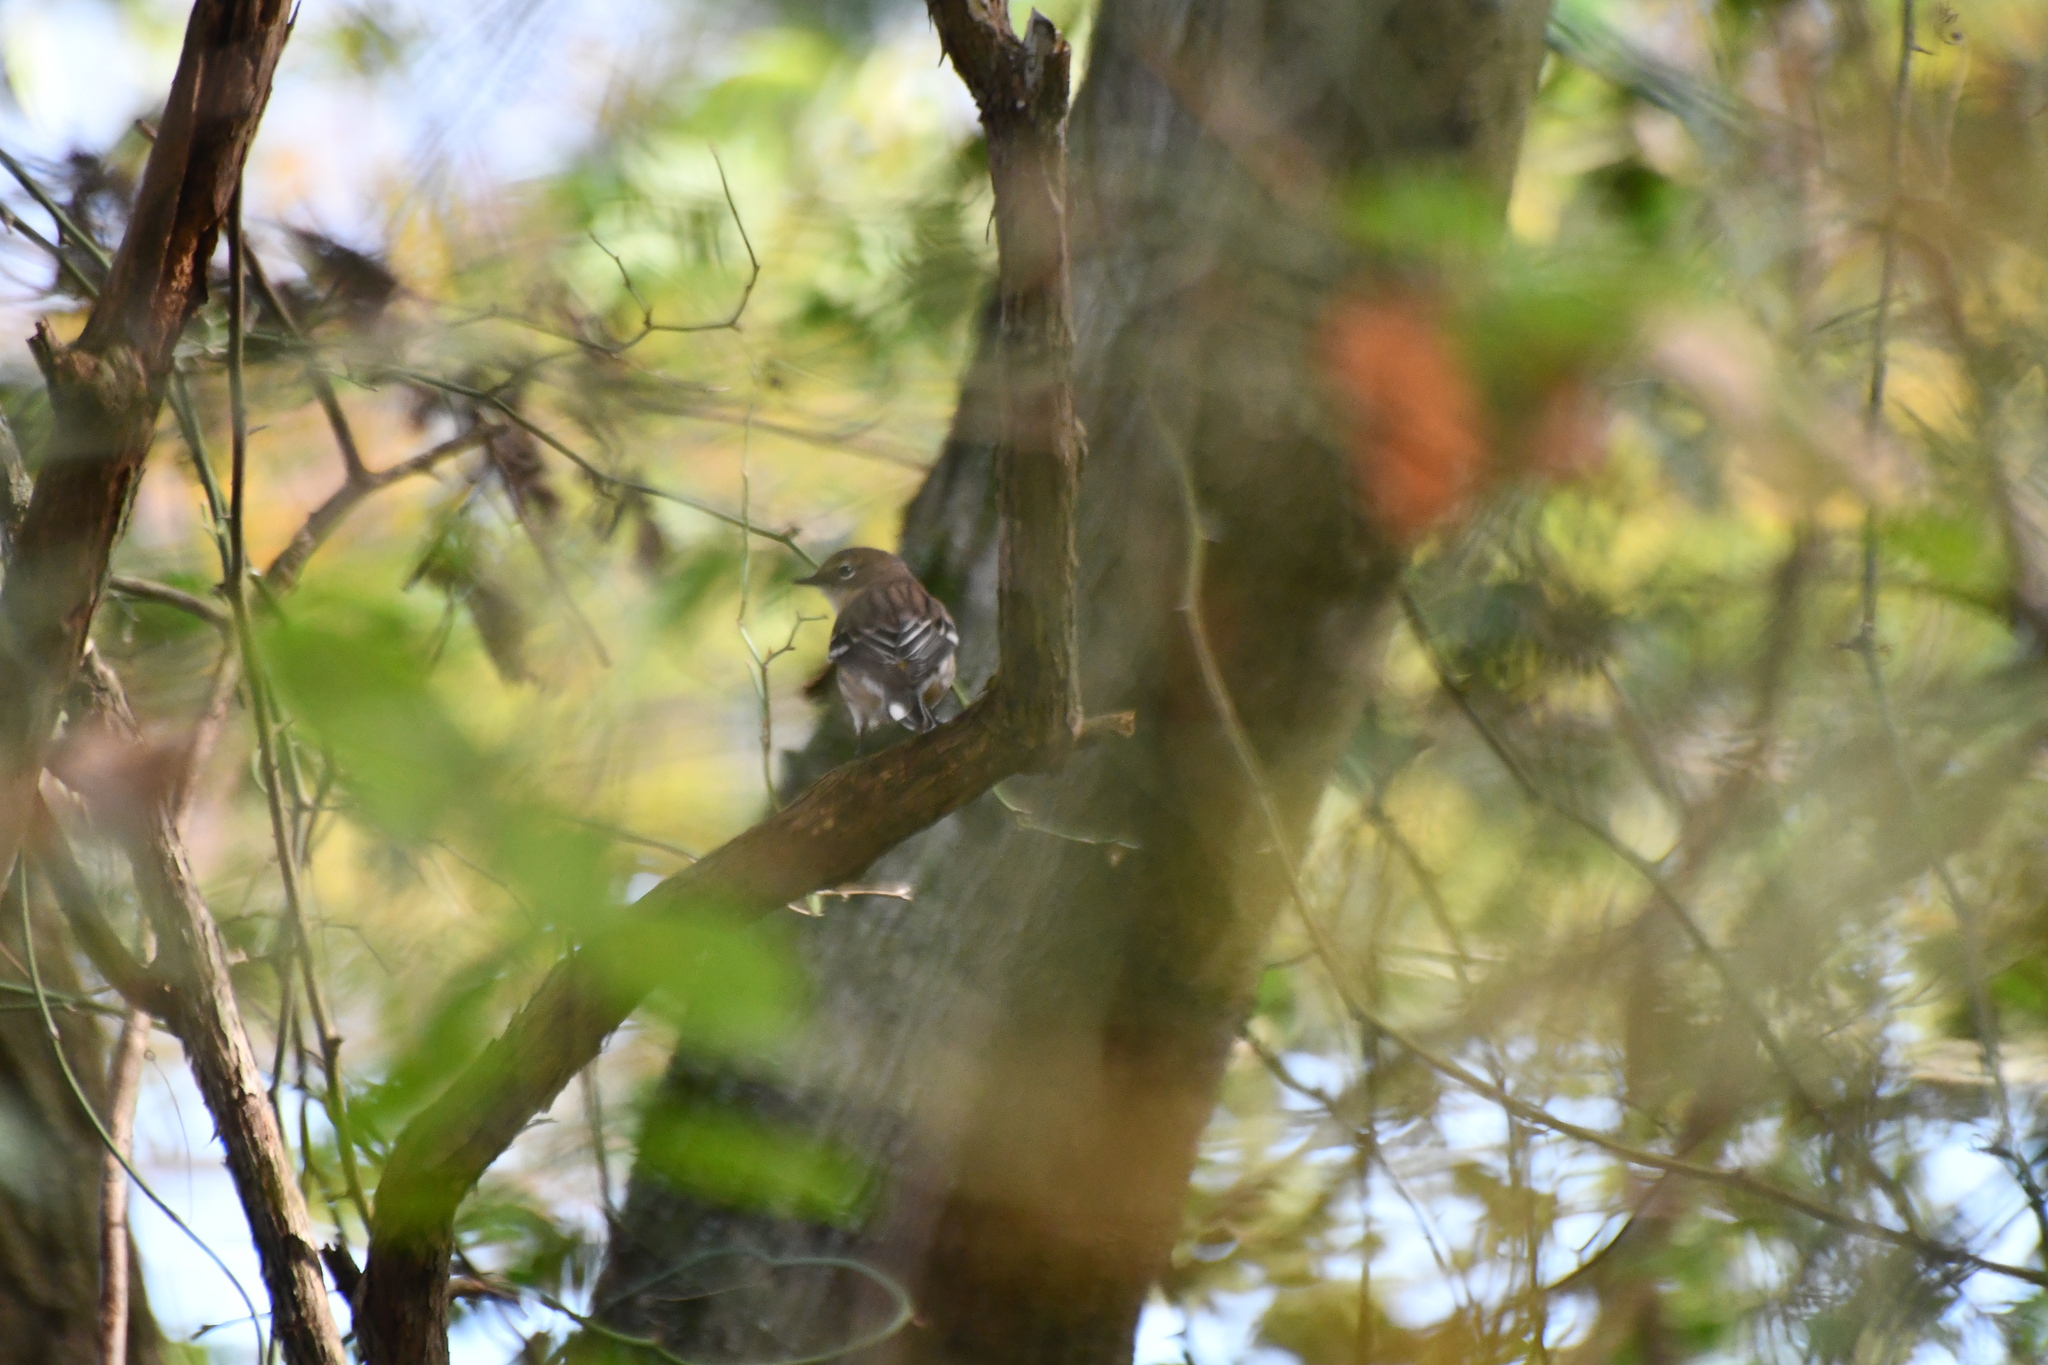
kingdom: Animalia
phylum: Chordata
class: Aves
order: Passeriformes
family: Parulidae
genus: Setophaga
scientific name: Setophaga coronata
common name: Myrtle warbler
